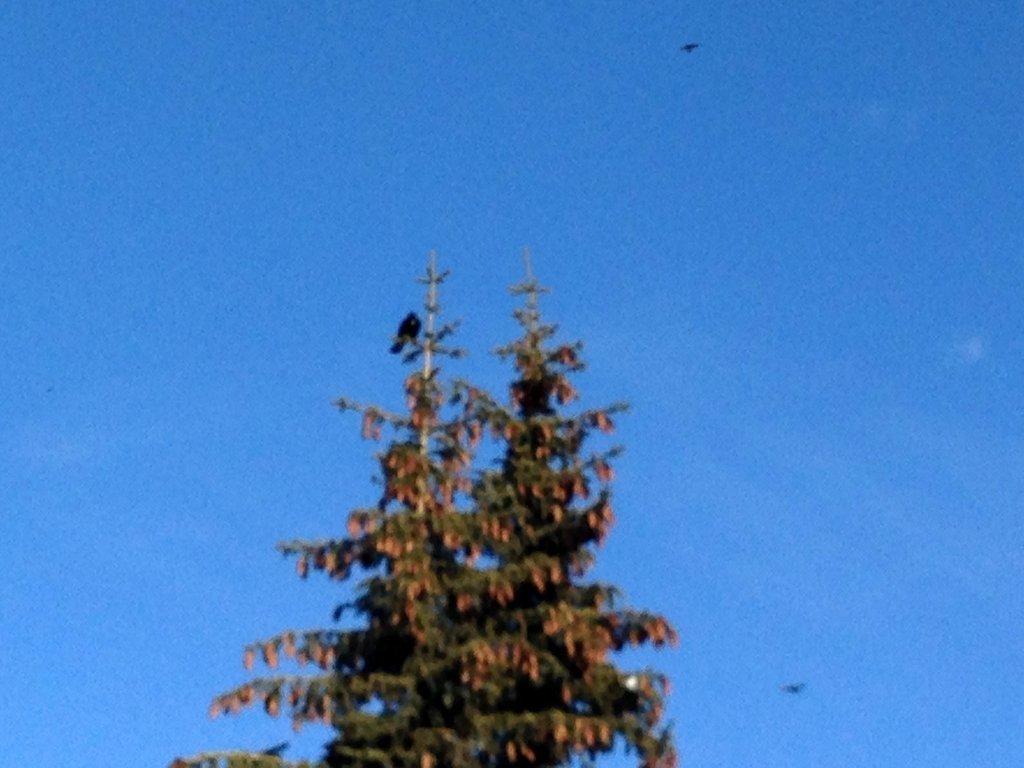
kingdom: Animalia
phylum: Chordata
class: Aves
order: Passeriformes
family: Corvidae
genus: Pyrrhocorax
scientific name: Pyrrhocorax graculus
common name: Alpine chough
